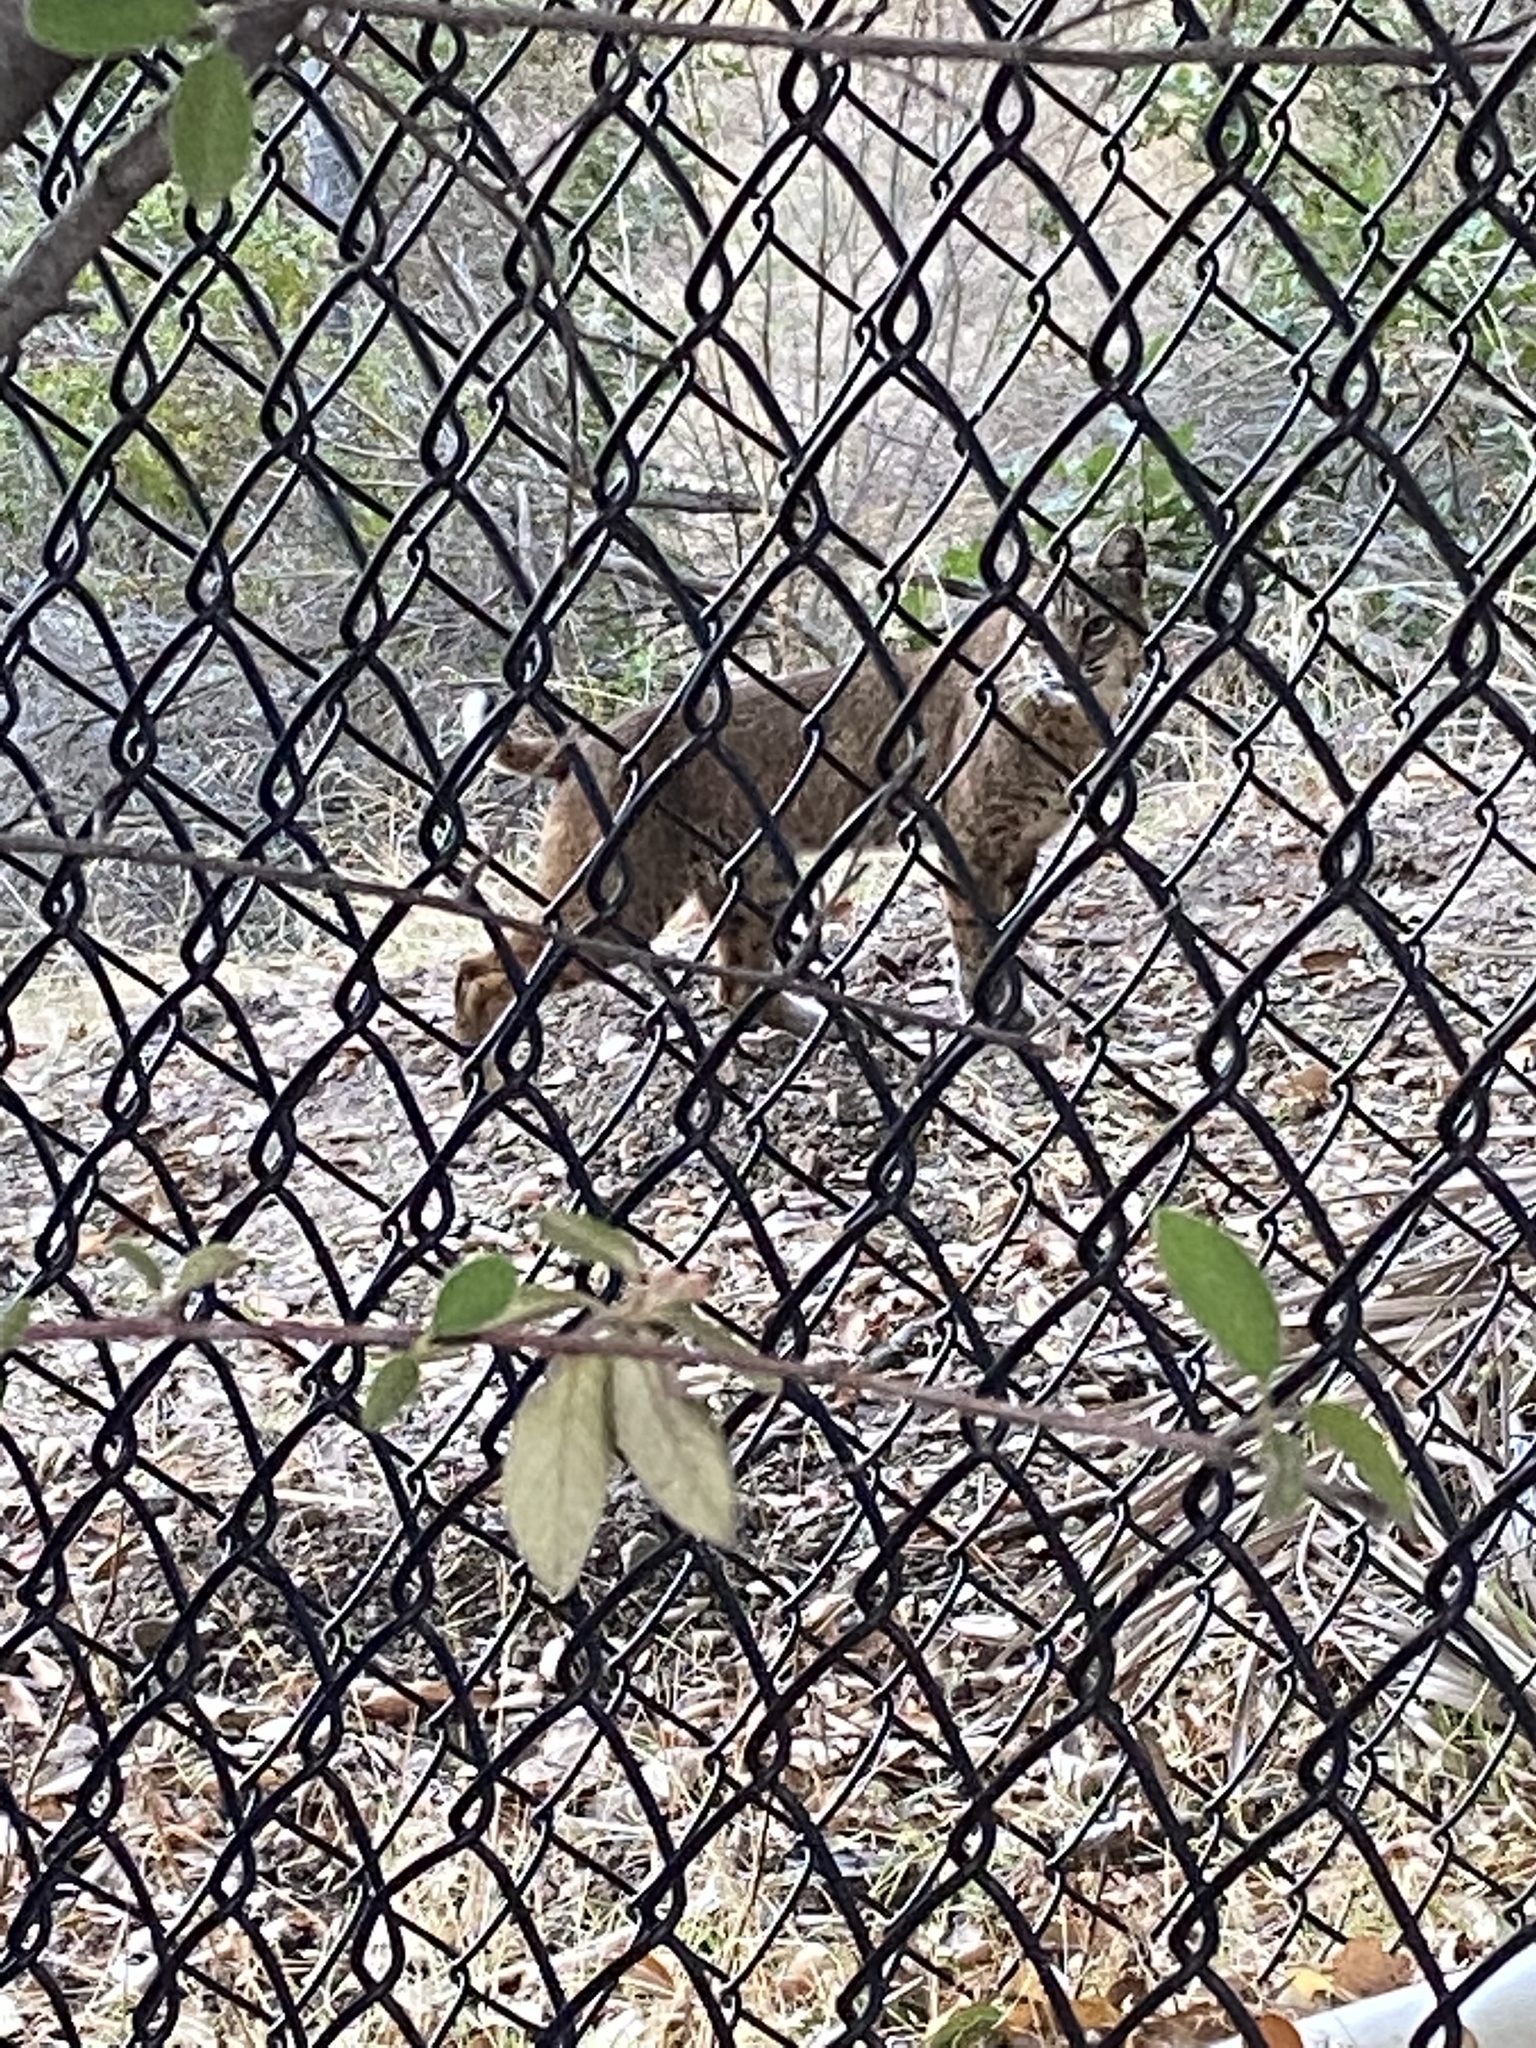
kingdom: Animalia
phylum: Chordata
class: Mammalia
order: Carnivora
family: Felidae
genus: Lynx
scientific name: Lynx rufus
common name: Bobcat
